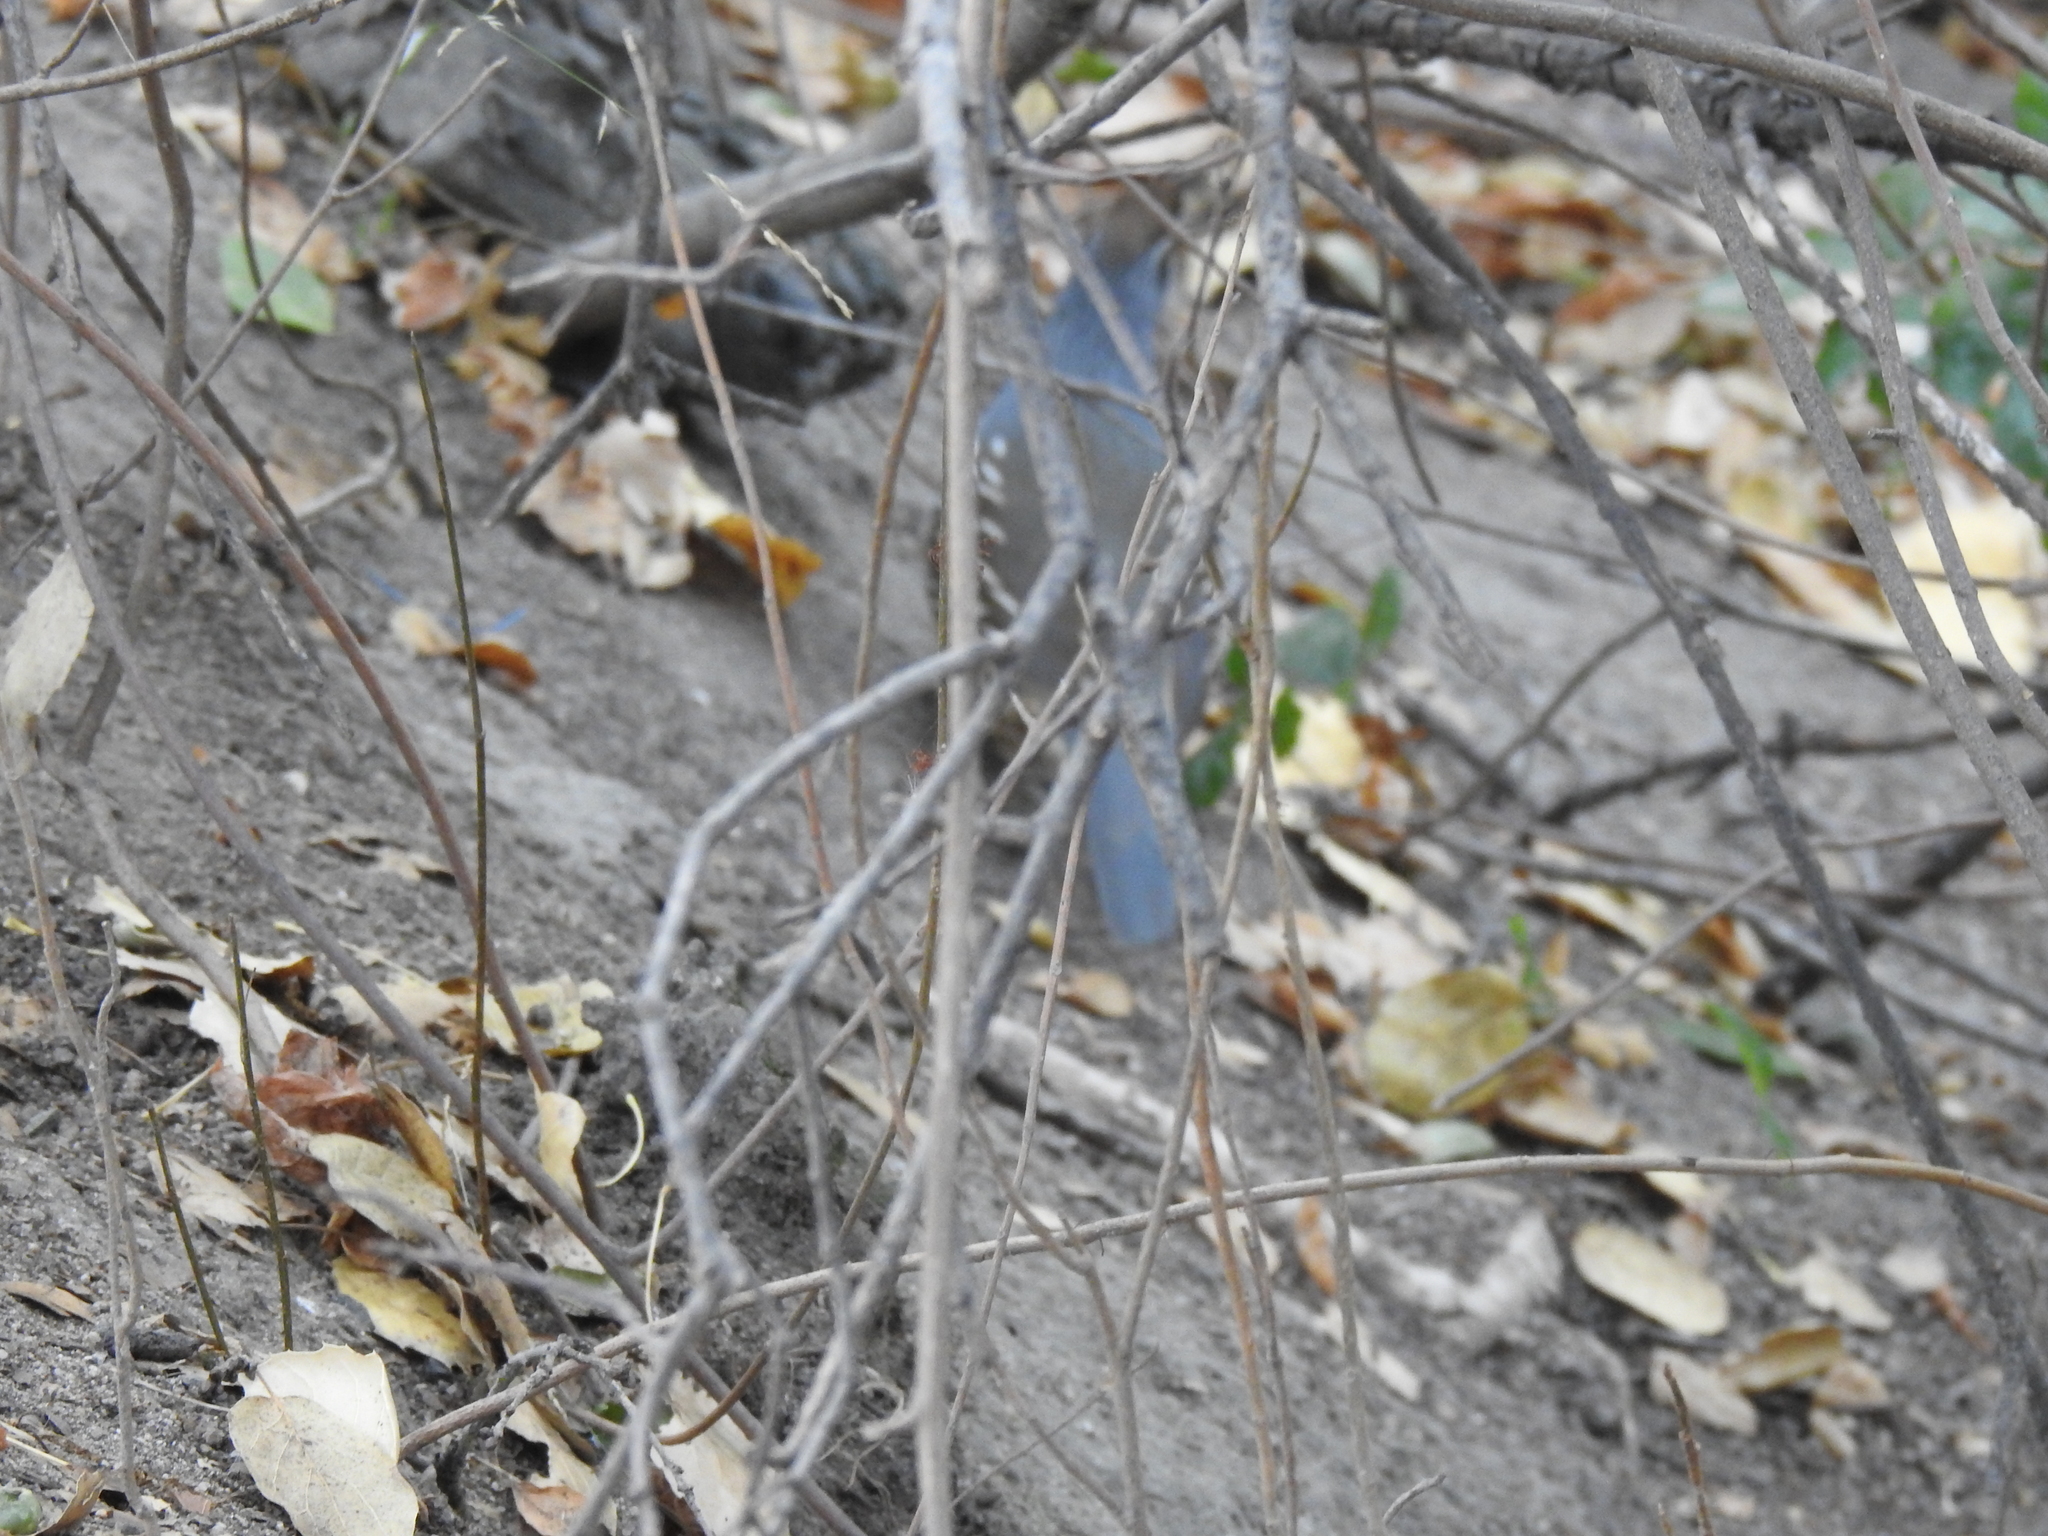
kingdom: Animalia
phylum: Chordata
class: Aves
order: Galliformes
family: Odontophoridae
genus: Callipepla
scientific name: Callipepla californica
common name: California quail
